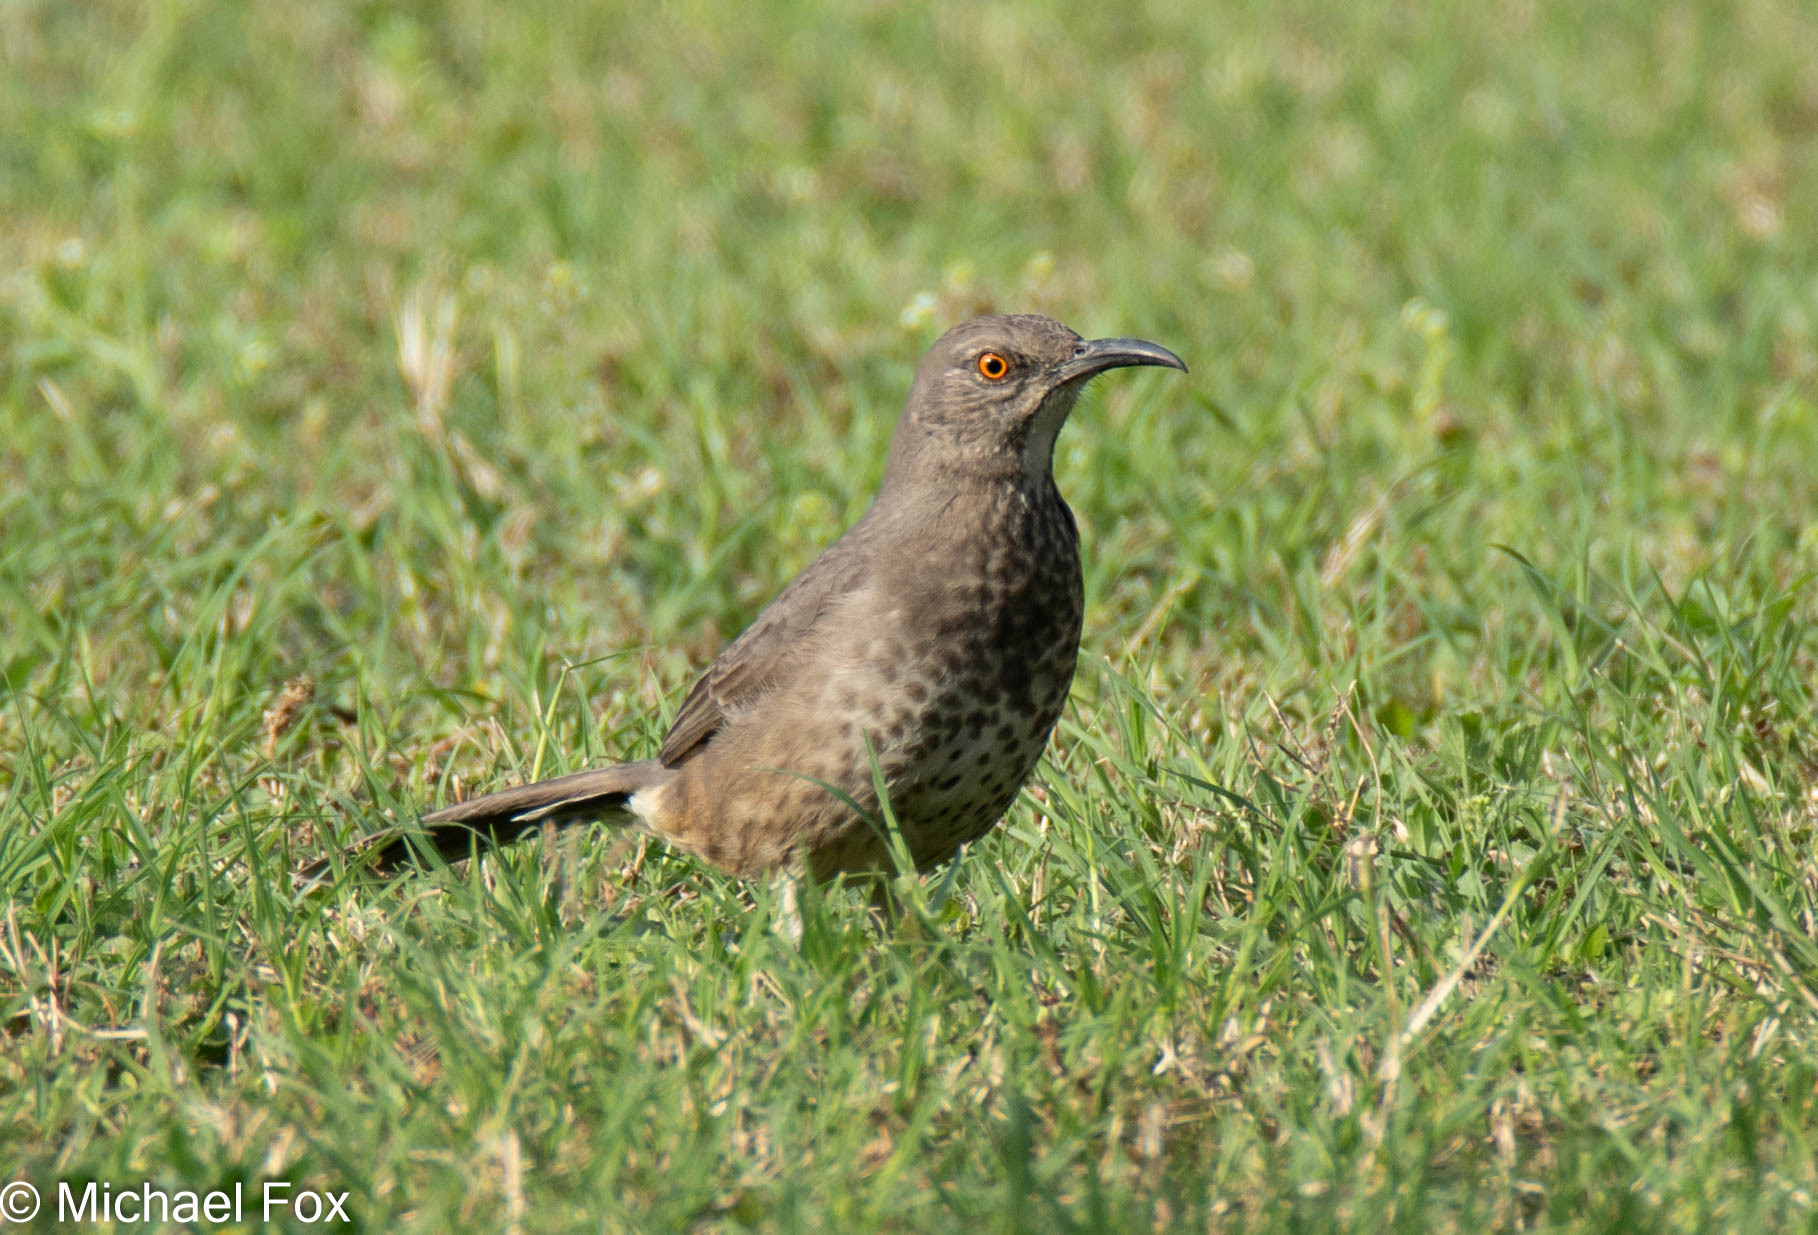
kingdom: Animalia
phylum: Chordata
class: Aves
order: Passeriformes
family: Mimidae
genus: Toxostoma
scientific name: Toxostoma curvirostre
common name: Curve-billed thrasher
